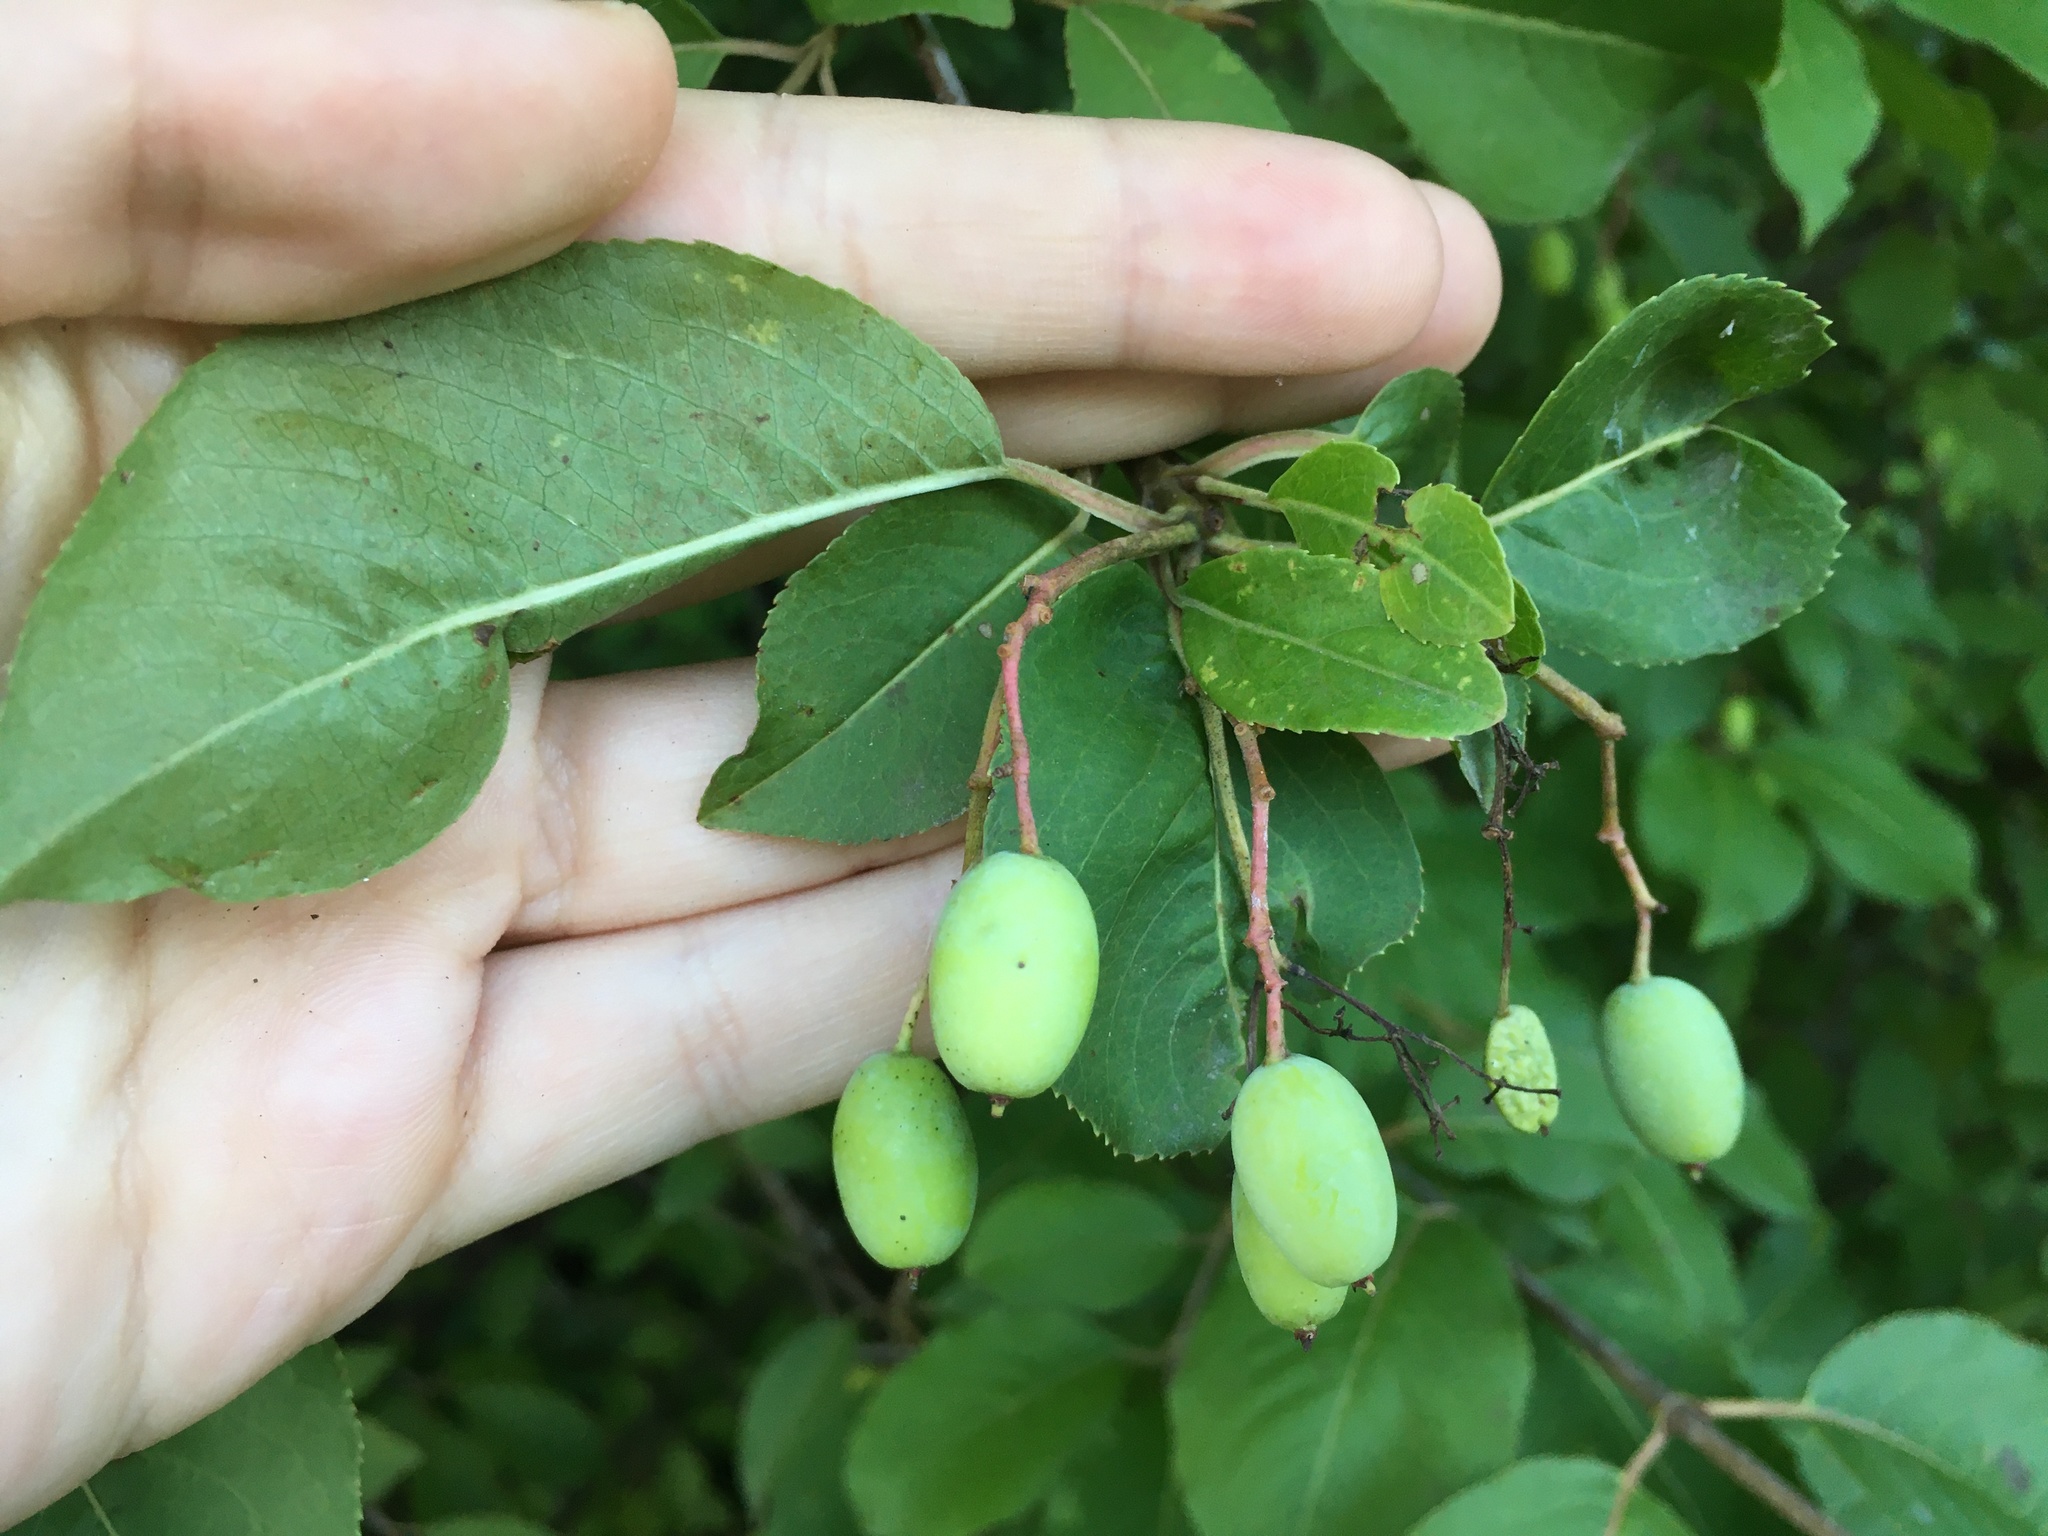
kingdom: Plantae
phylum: Tracheophyta
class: Magnoliopsida
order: Dipsacales
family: Viburnaceae
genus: Viburnum
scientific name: Viburnum prunifolium
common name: Black haw
